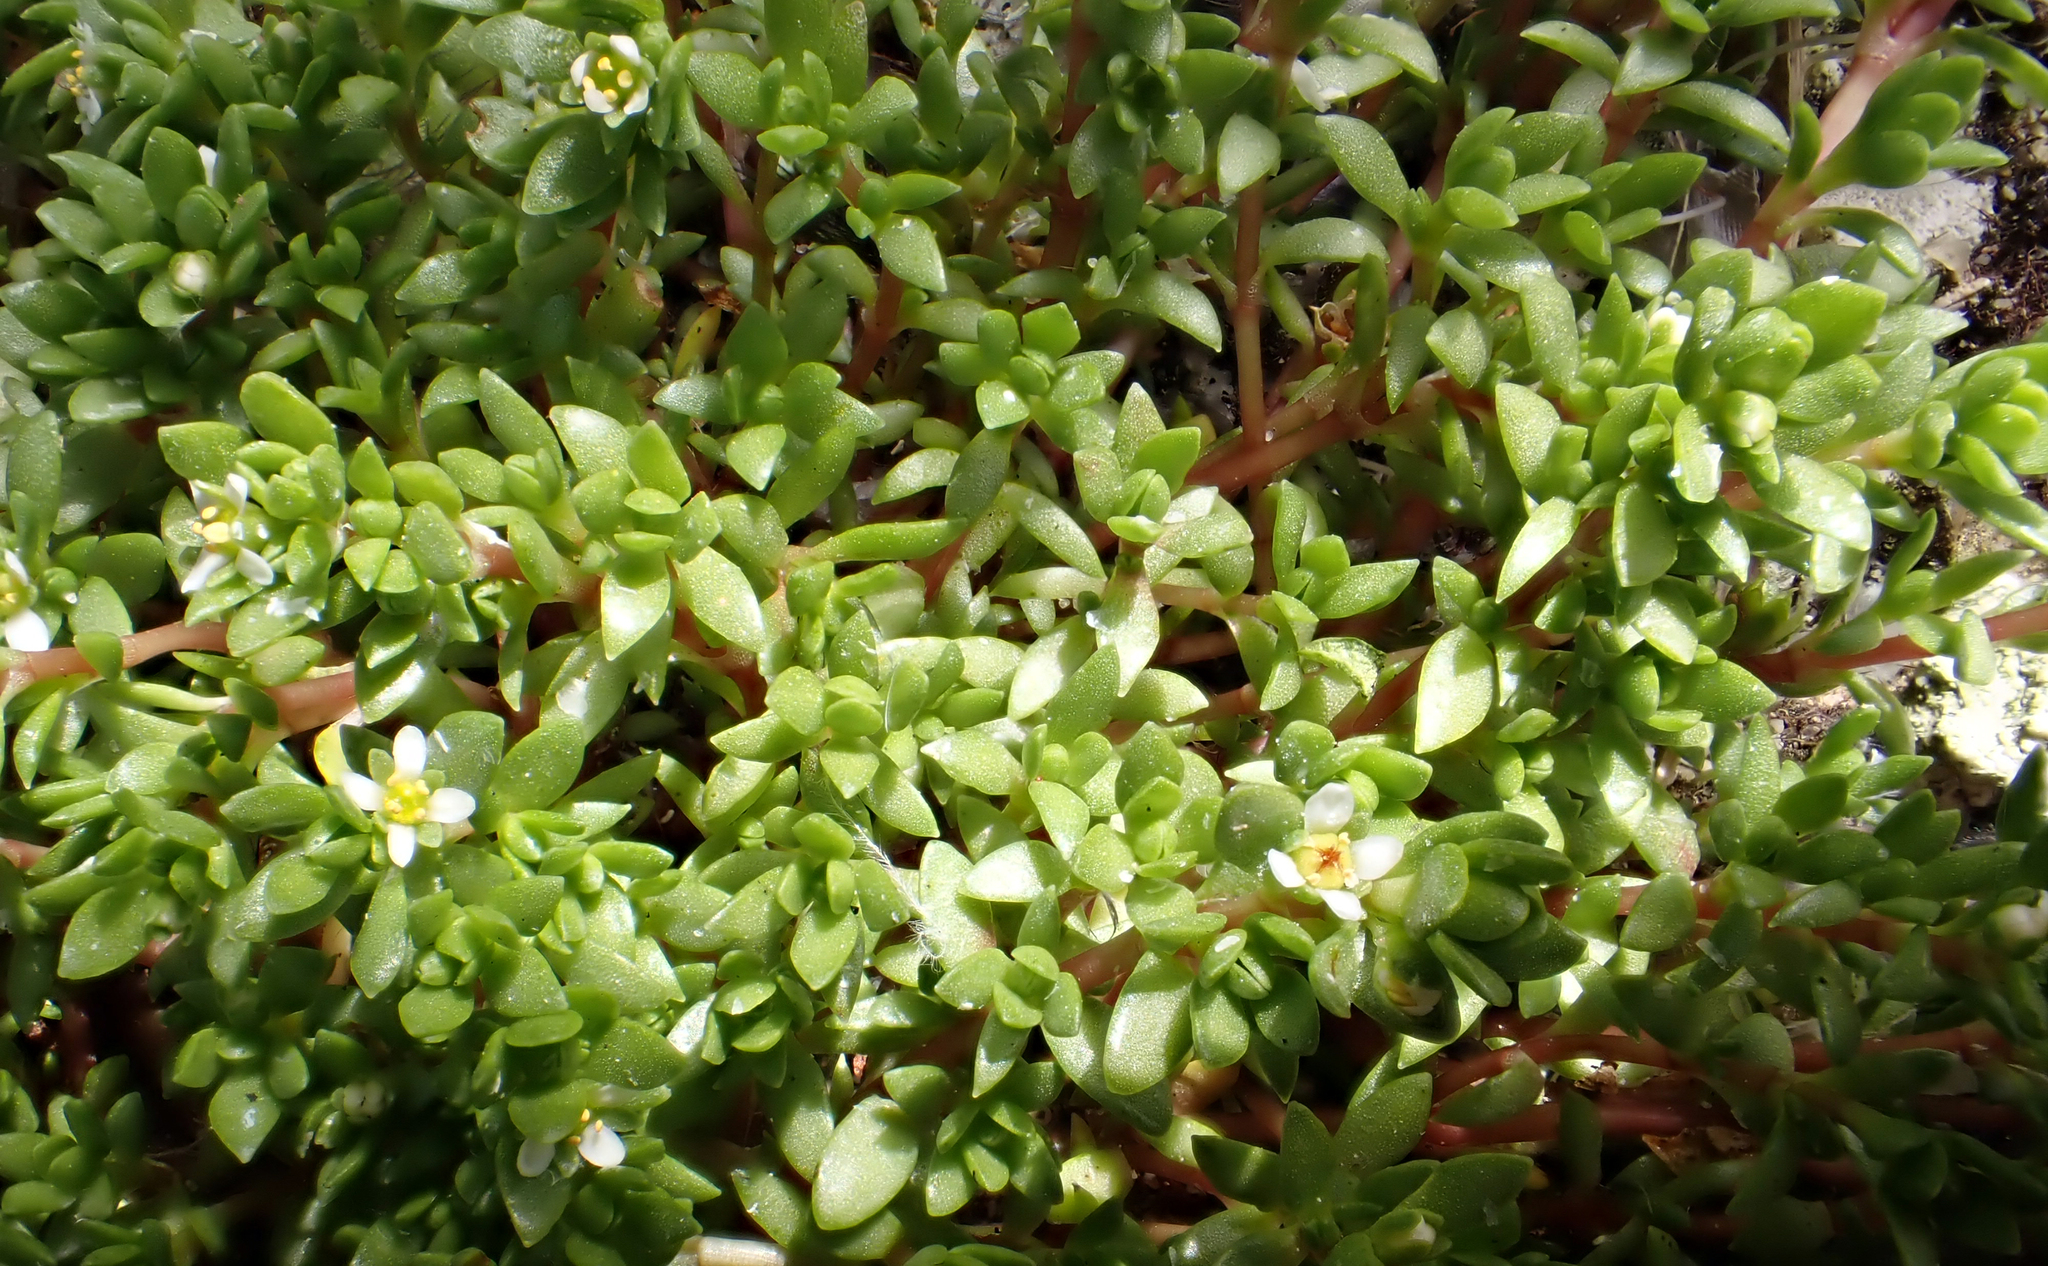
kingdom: Plantae
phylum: Tracheophyta
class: Magnoliopsida
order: Saxifragales
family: Crassulaceae
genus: Crassula
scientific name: Crassula moschata
